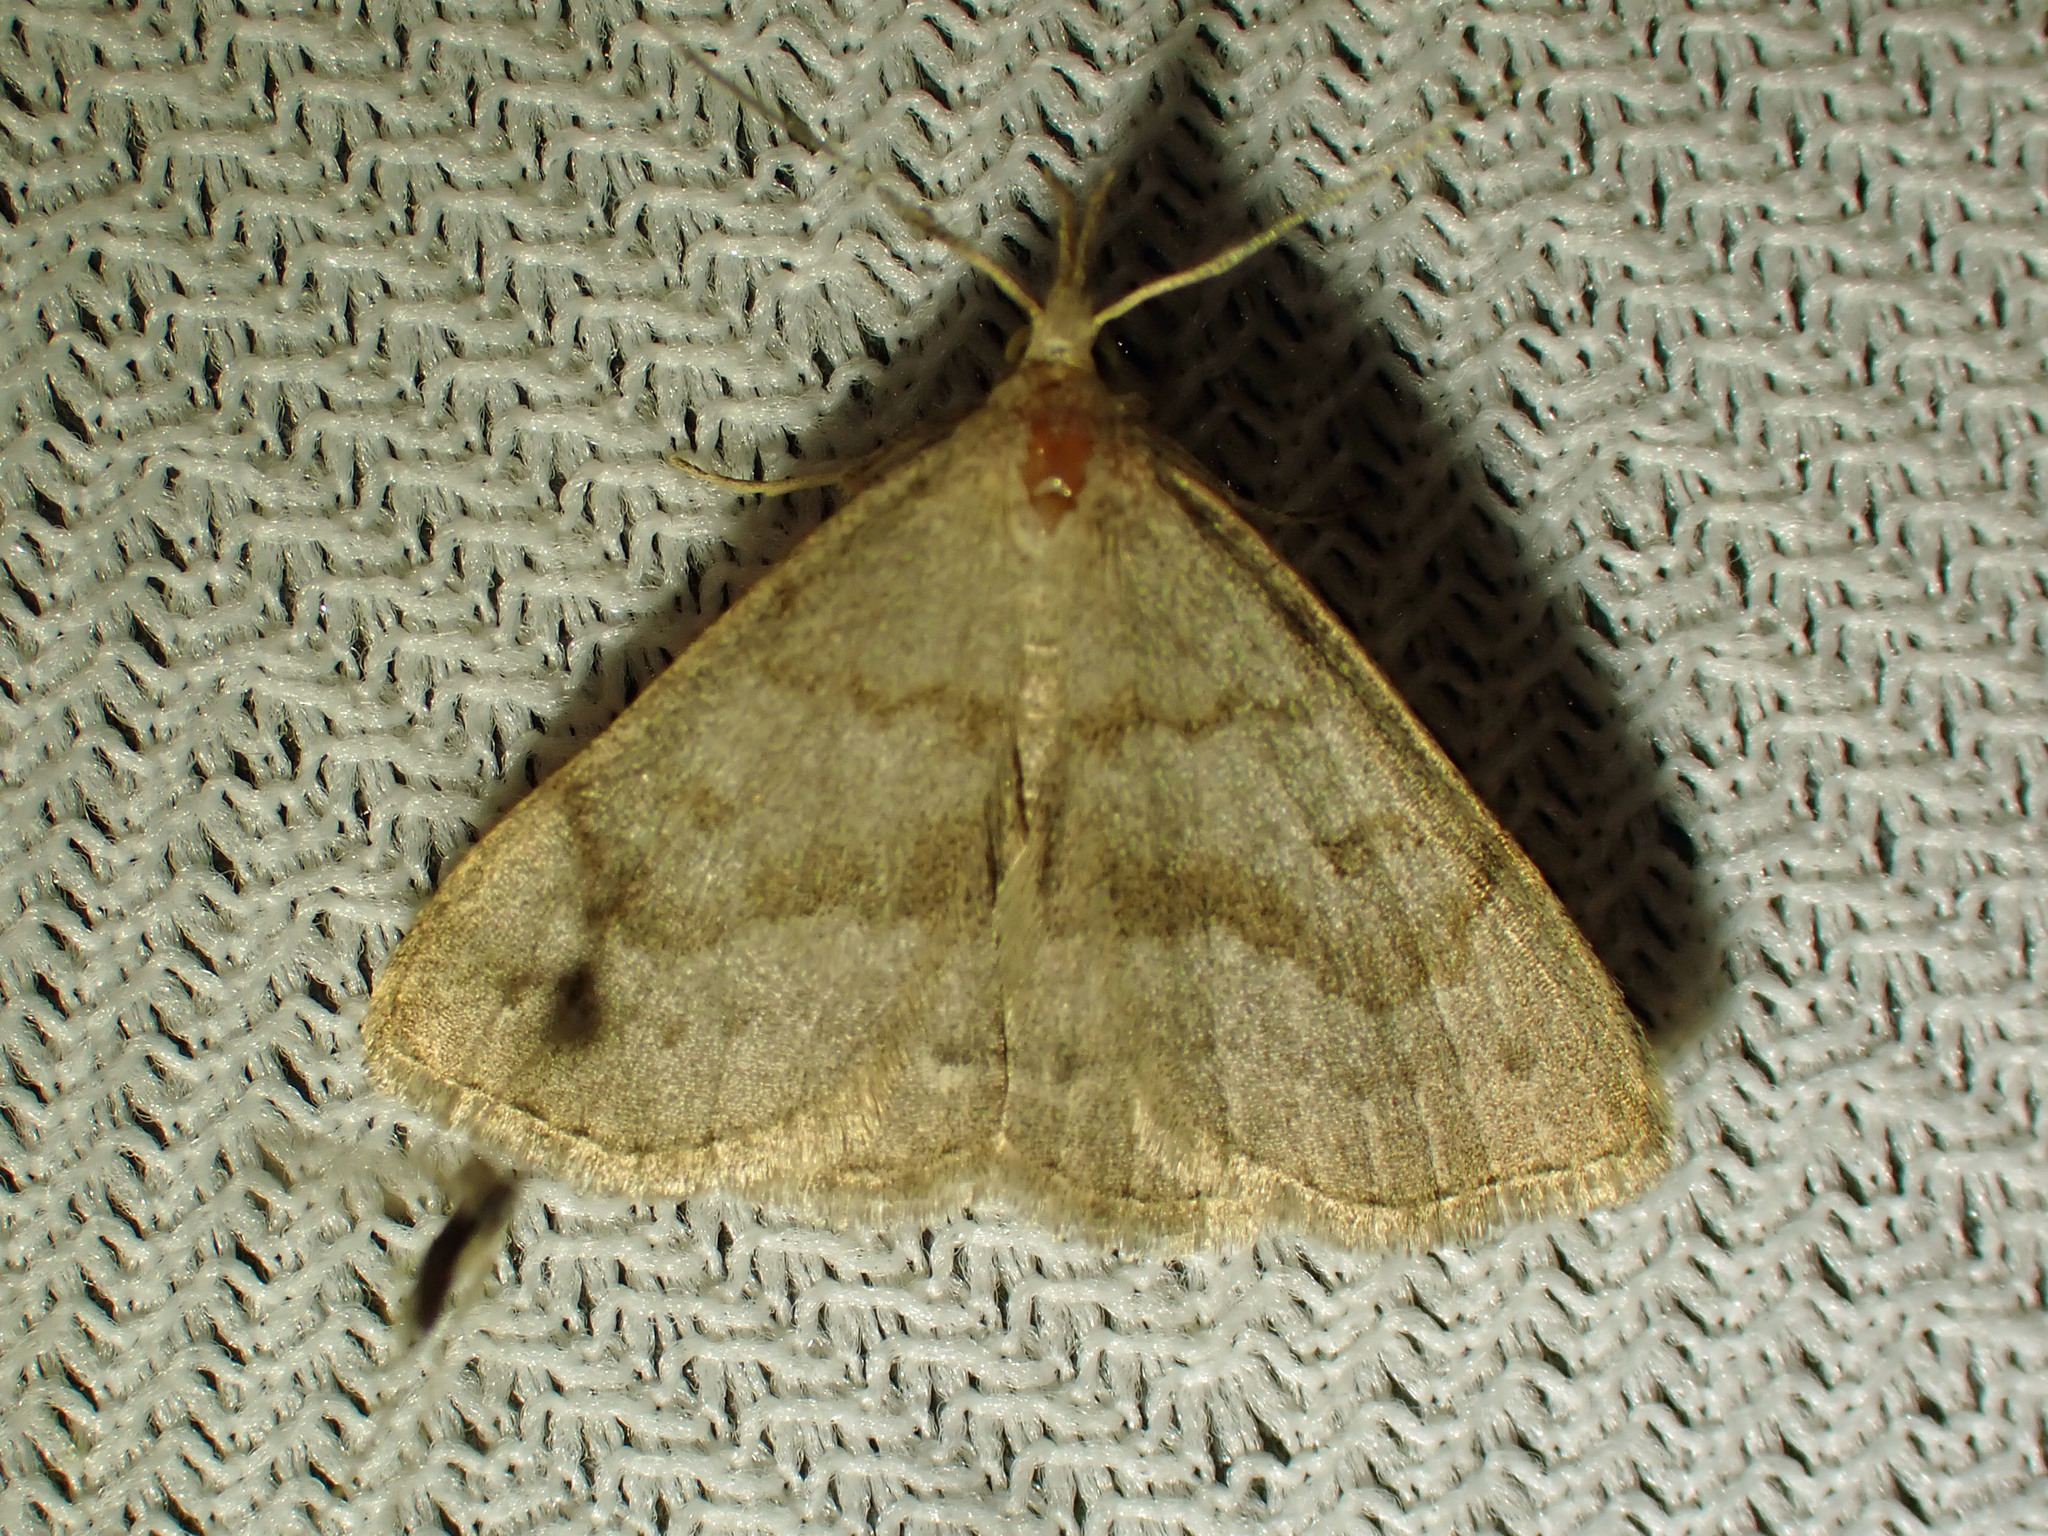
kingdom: Animalia
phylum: Arthropoda
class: Insecta
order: Lepidoptera
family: Erebidae
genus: Macrochilo
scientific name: Macrochilo morbidalis
